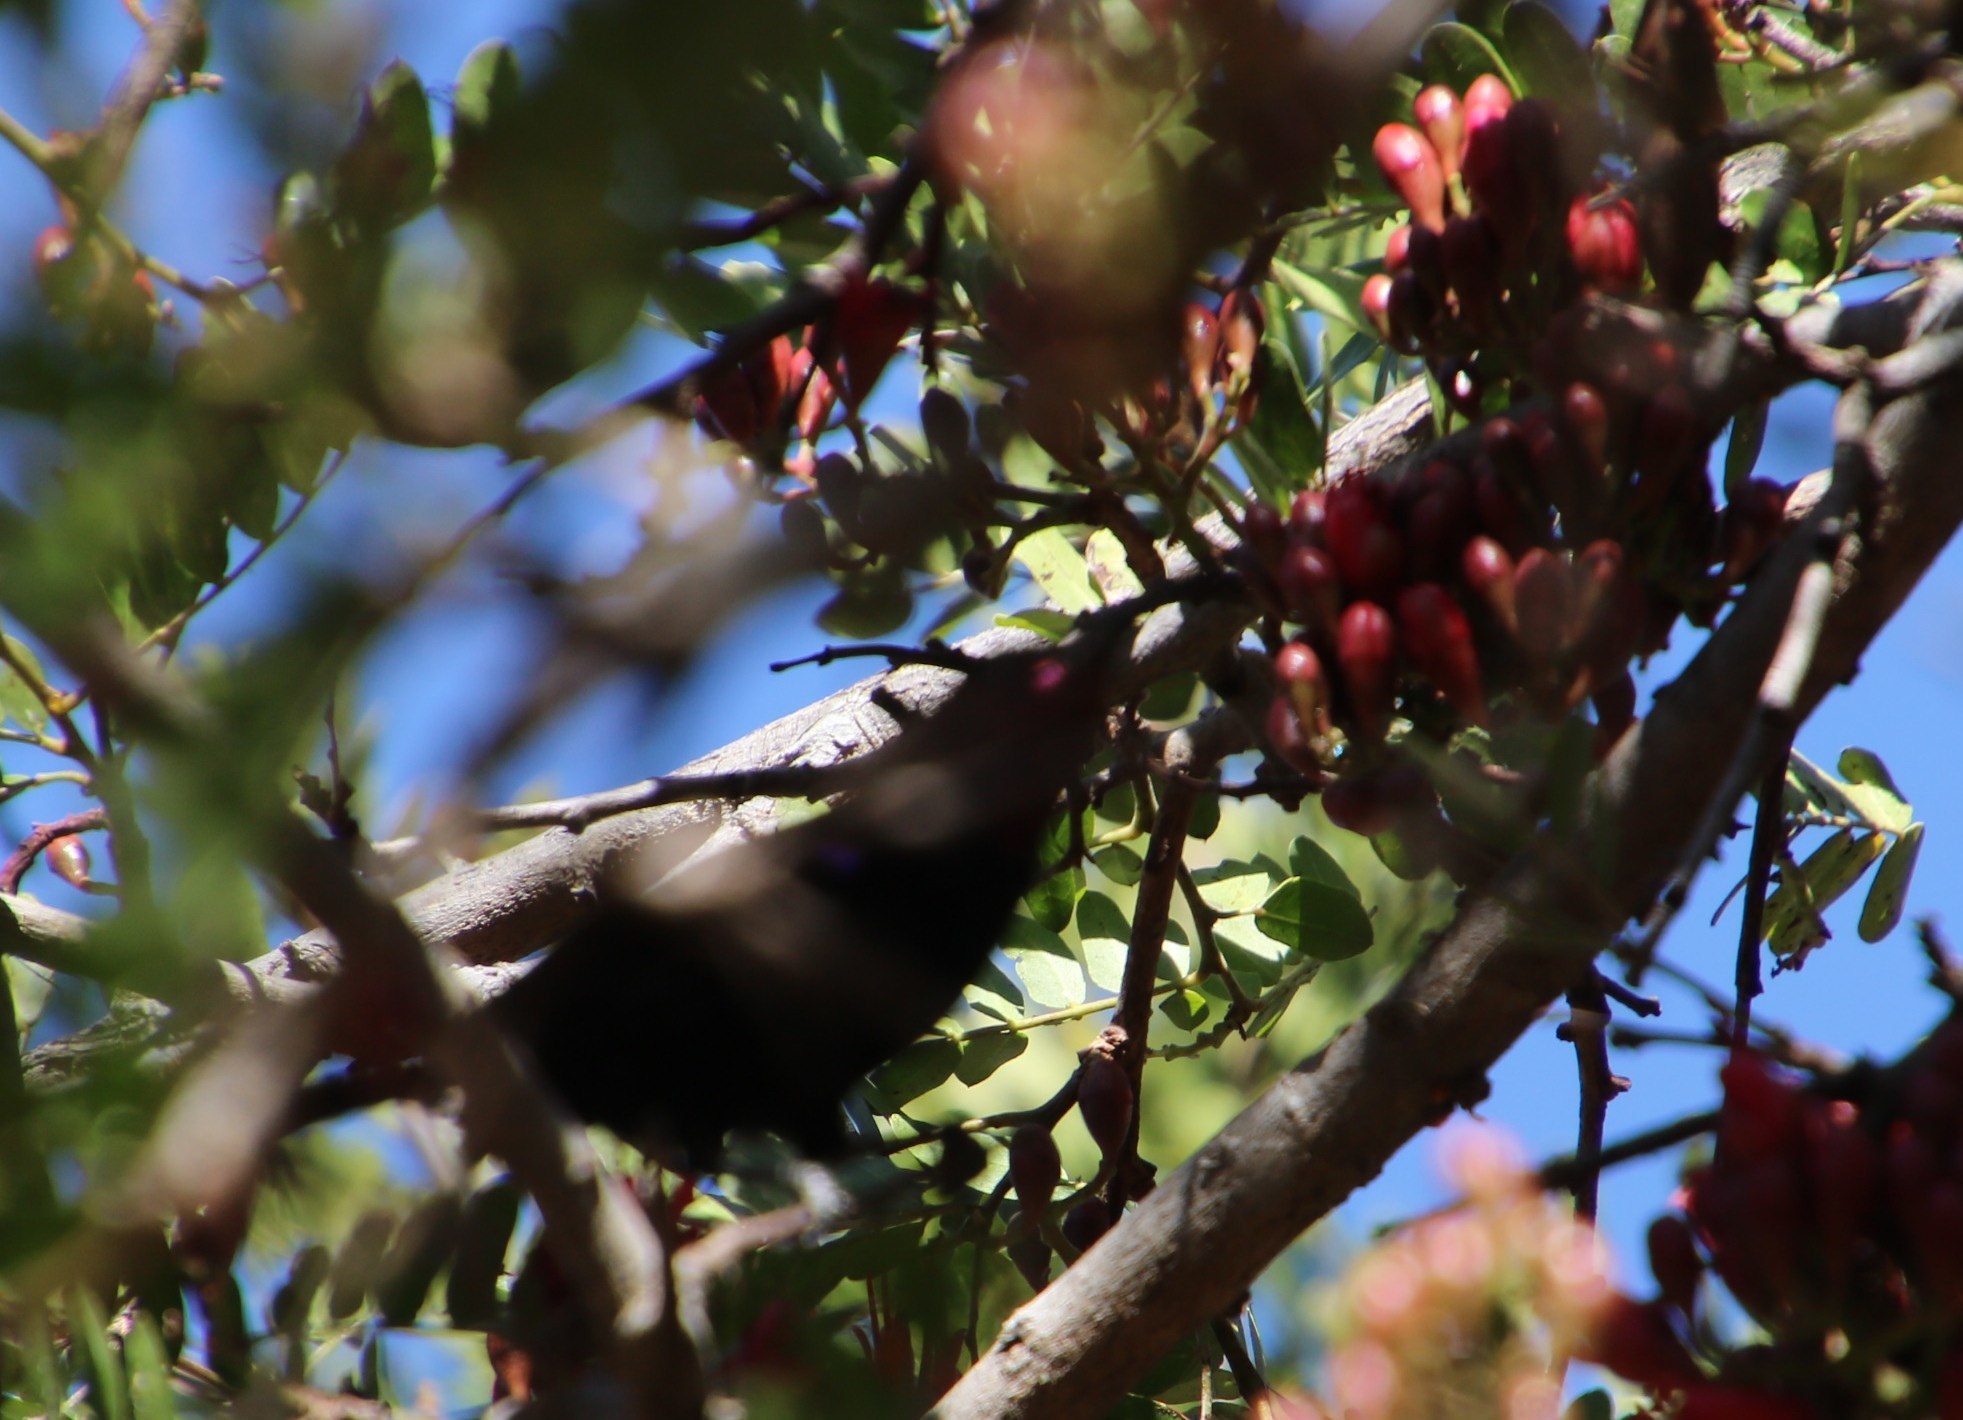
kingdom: Plantae
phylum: Tracheophyta
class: Magnoliopsida
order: Fabales
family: Fabaceae
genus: Schotia
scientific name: Schotia brachypetala
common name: Weeping boer-bean
